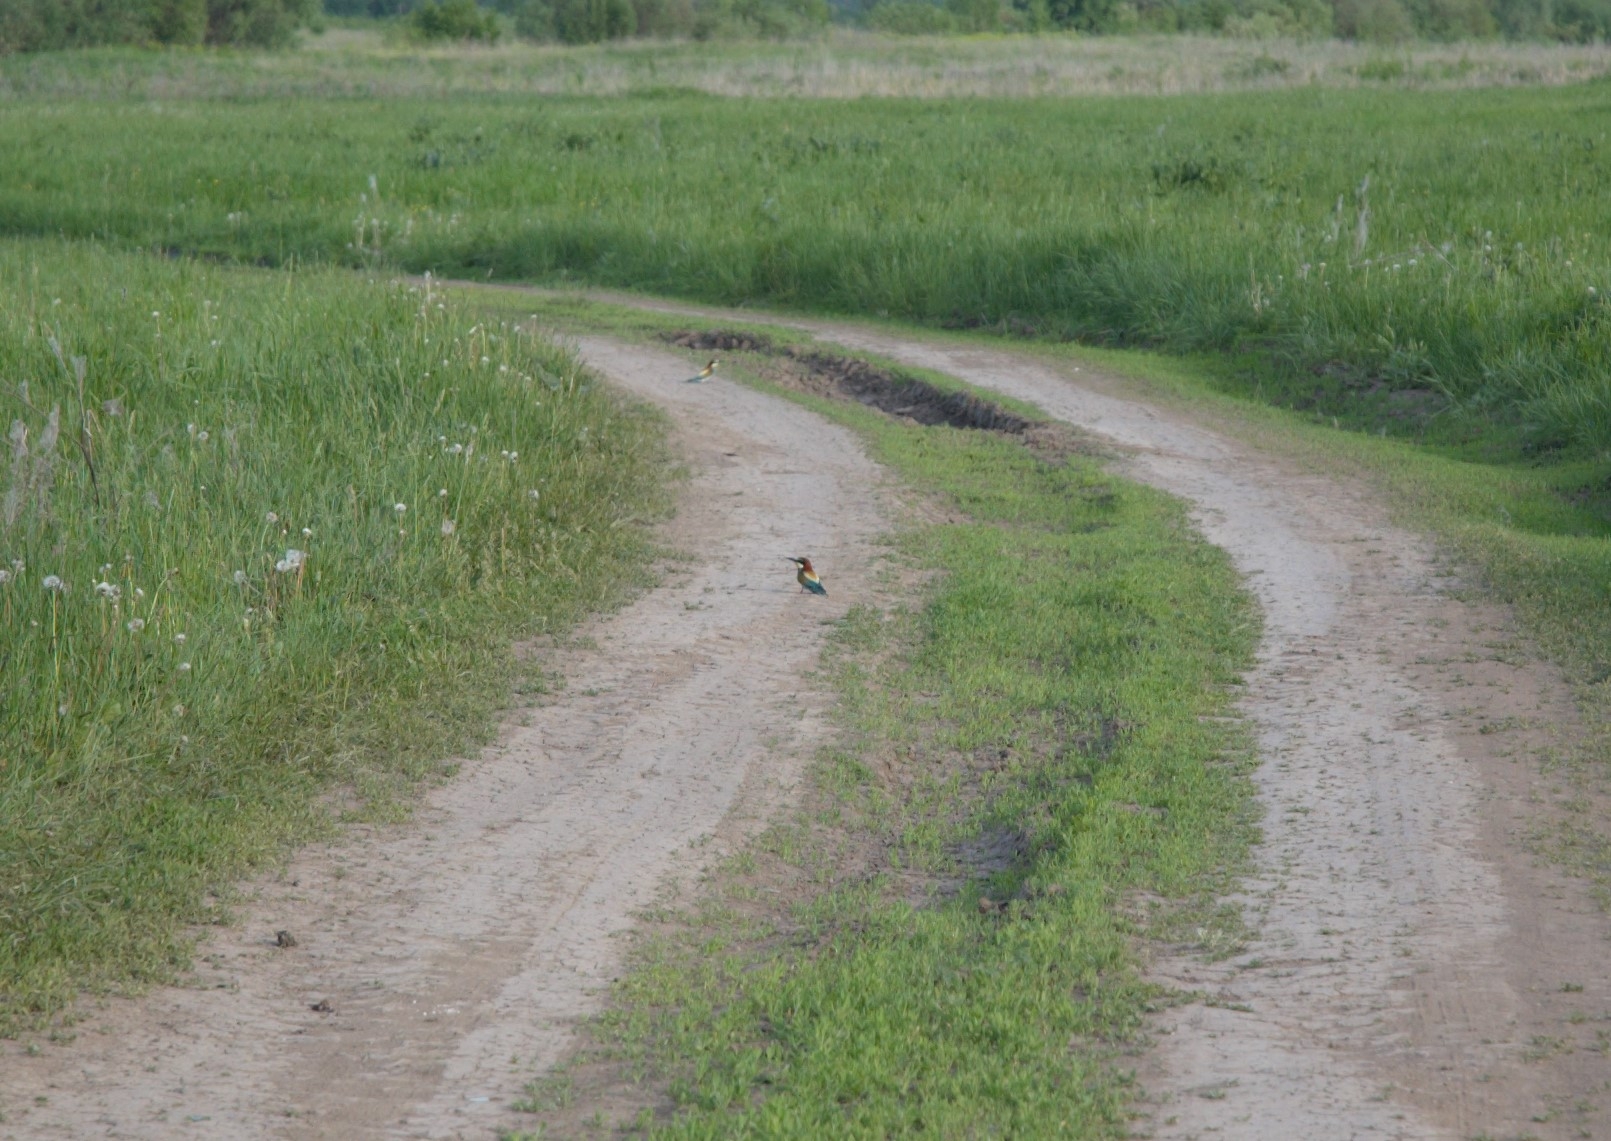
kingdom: Animalia
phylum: Chordata
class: Aves
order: Coraciiformes
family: Meropidae
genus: Merops
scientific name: Merops apiaster
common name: European bee-eater
